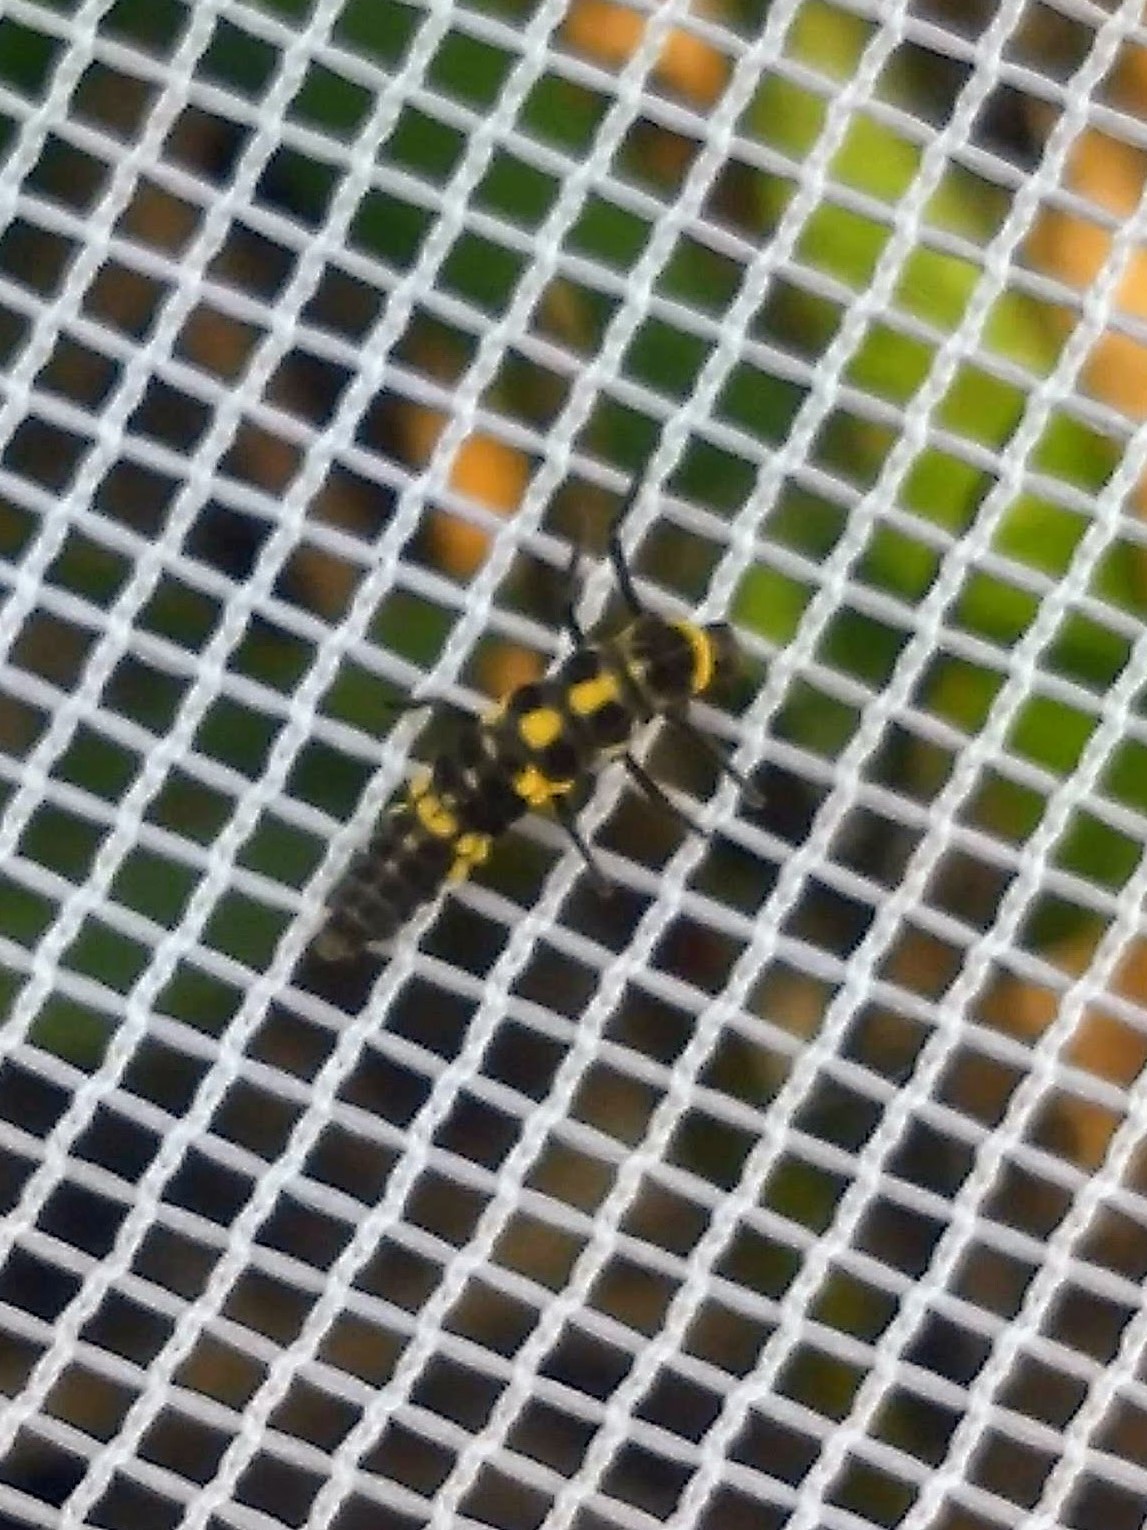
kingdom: Animalia
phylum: Arthropoda
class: Insecta
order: Coleoptera
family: Coccinellidae
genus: Cycloneda
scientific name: Cycloneda munda
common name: Polished lady beetle
